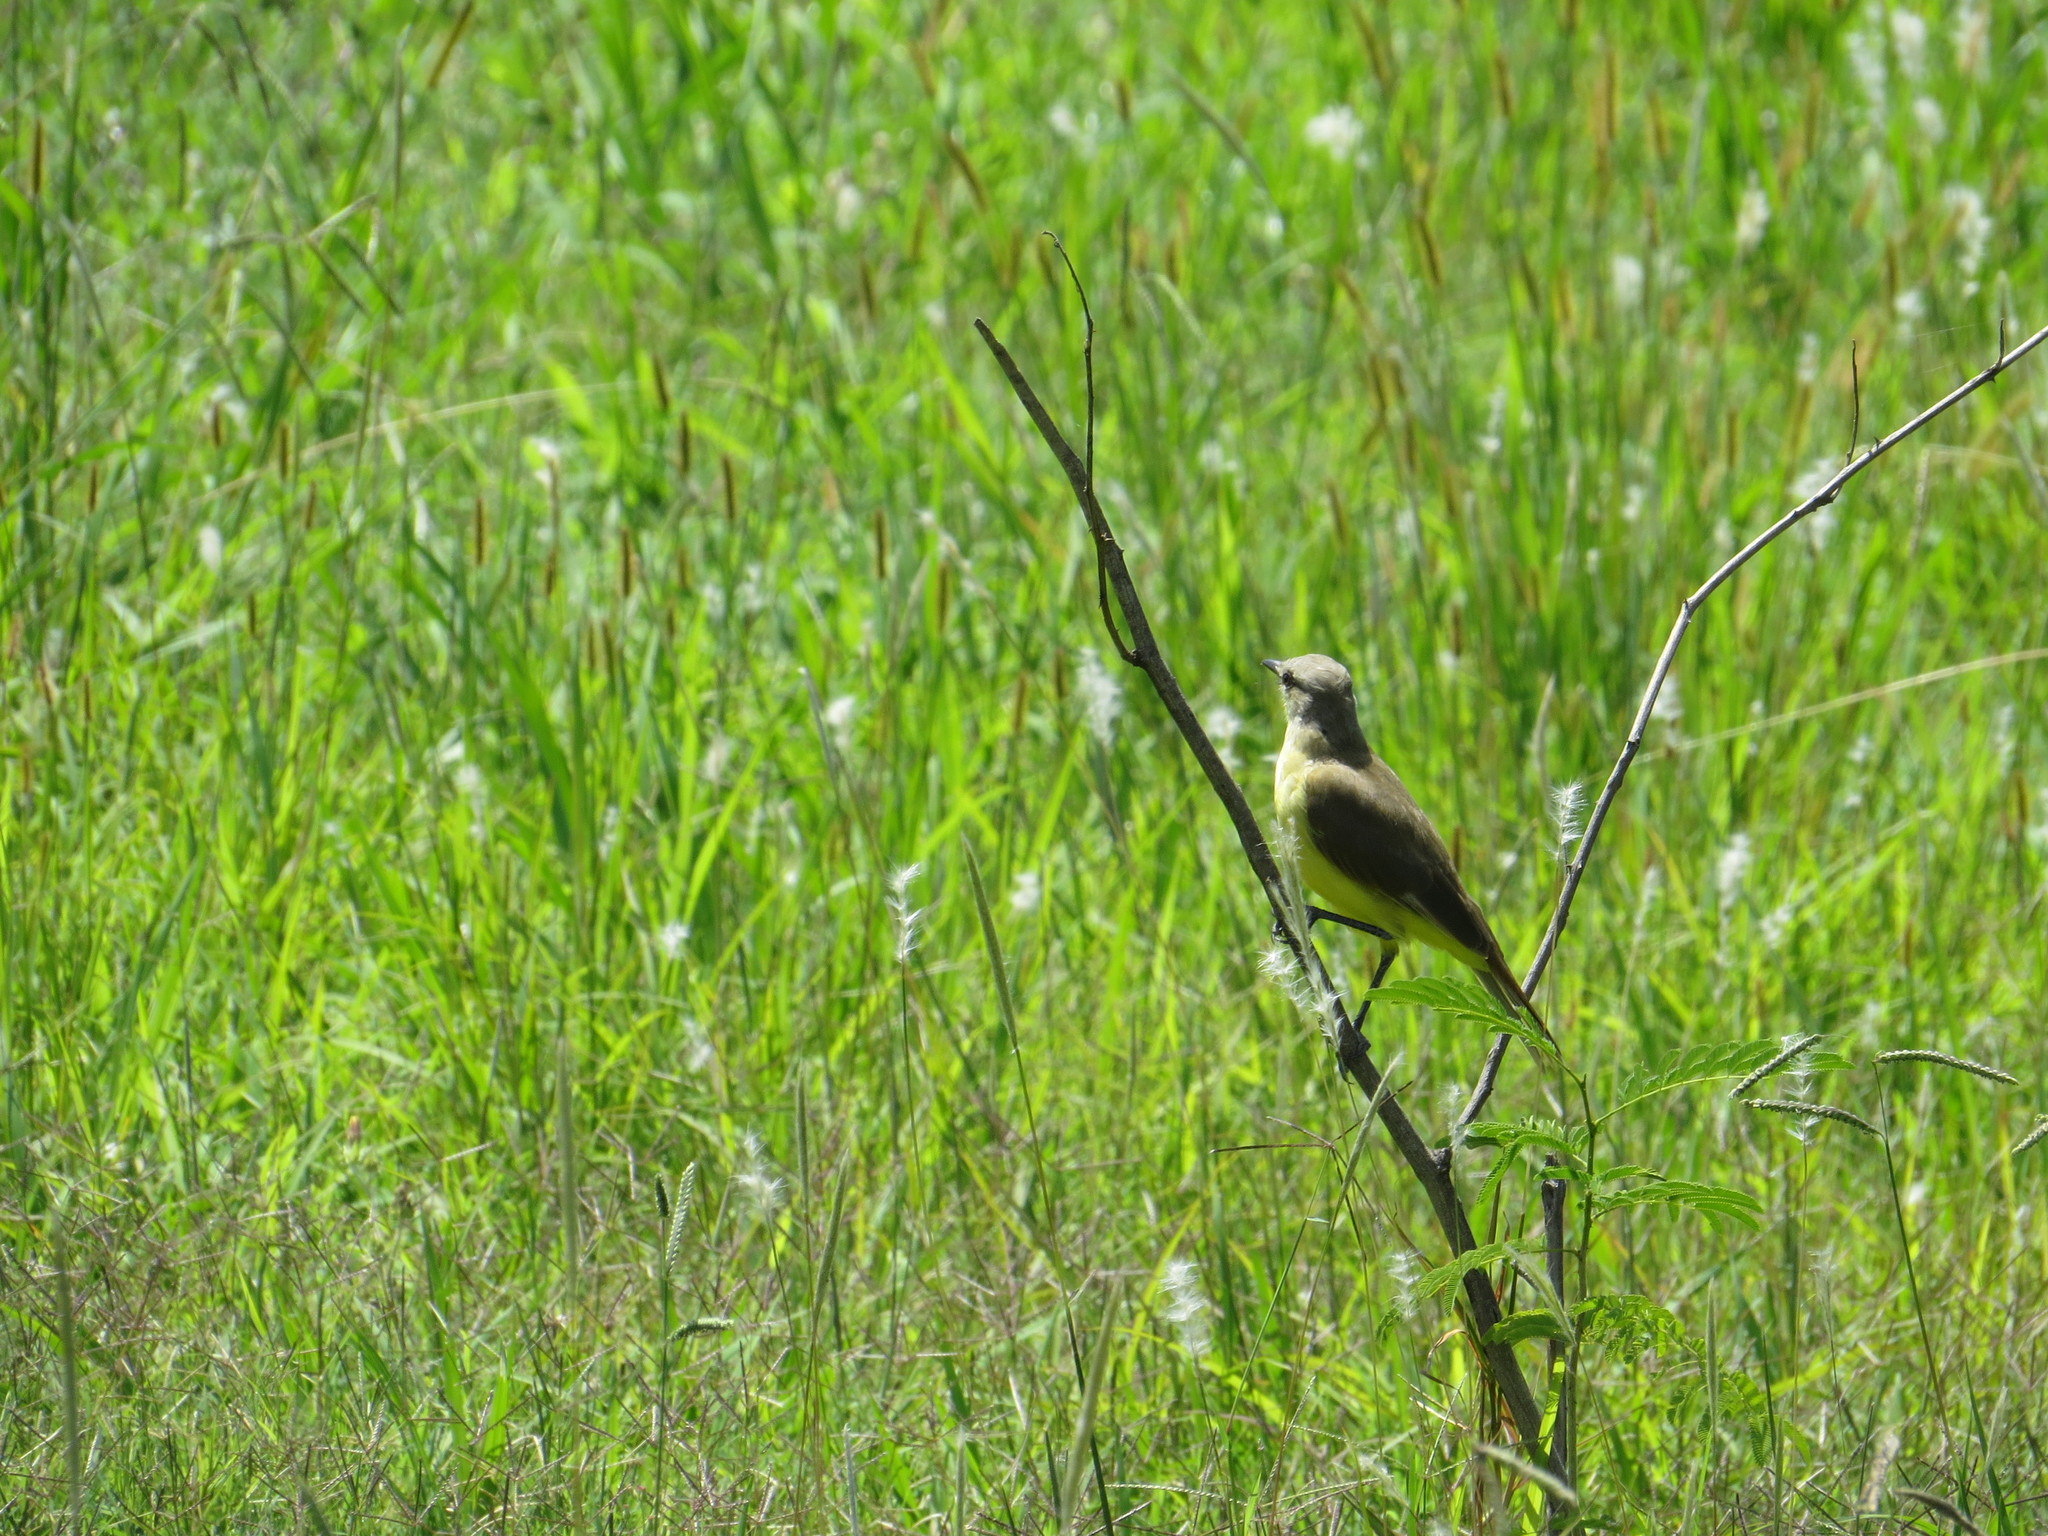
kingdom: Animalia
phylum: Chordata
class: Aves
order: Passeriformes
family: Tyrannidae
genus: Machetornis
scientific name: Machetornis rixosa
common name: Cattle tyrant
